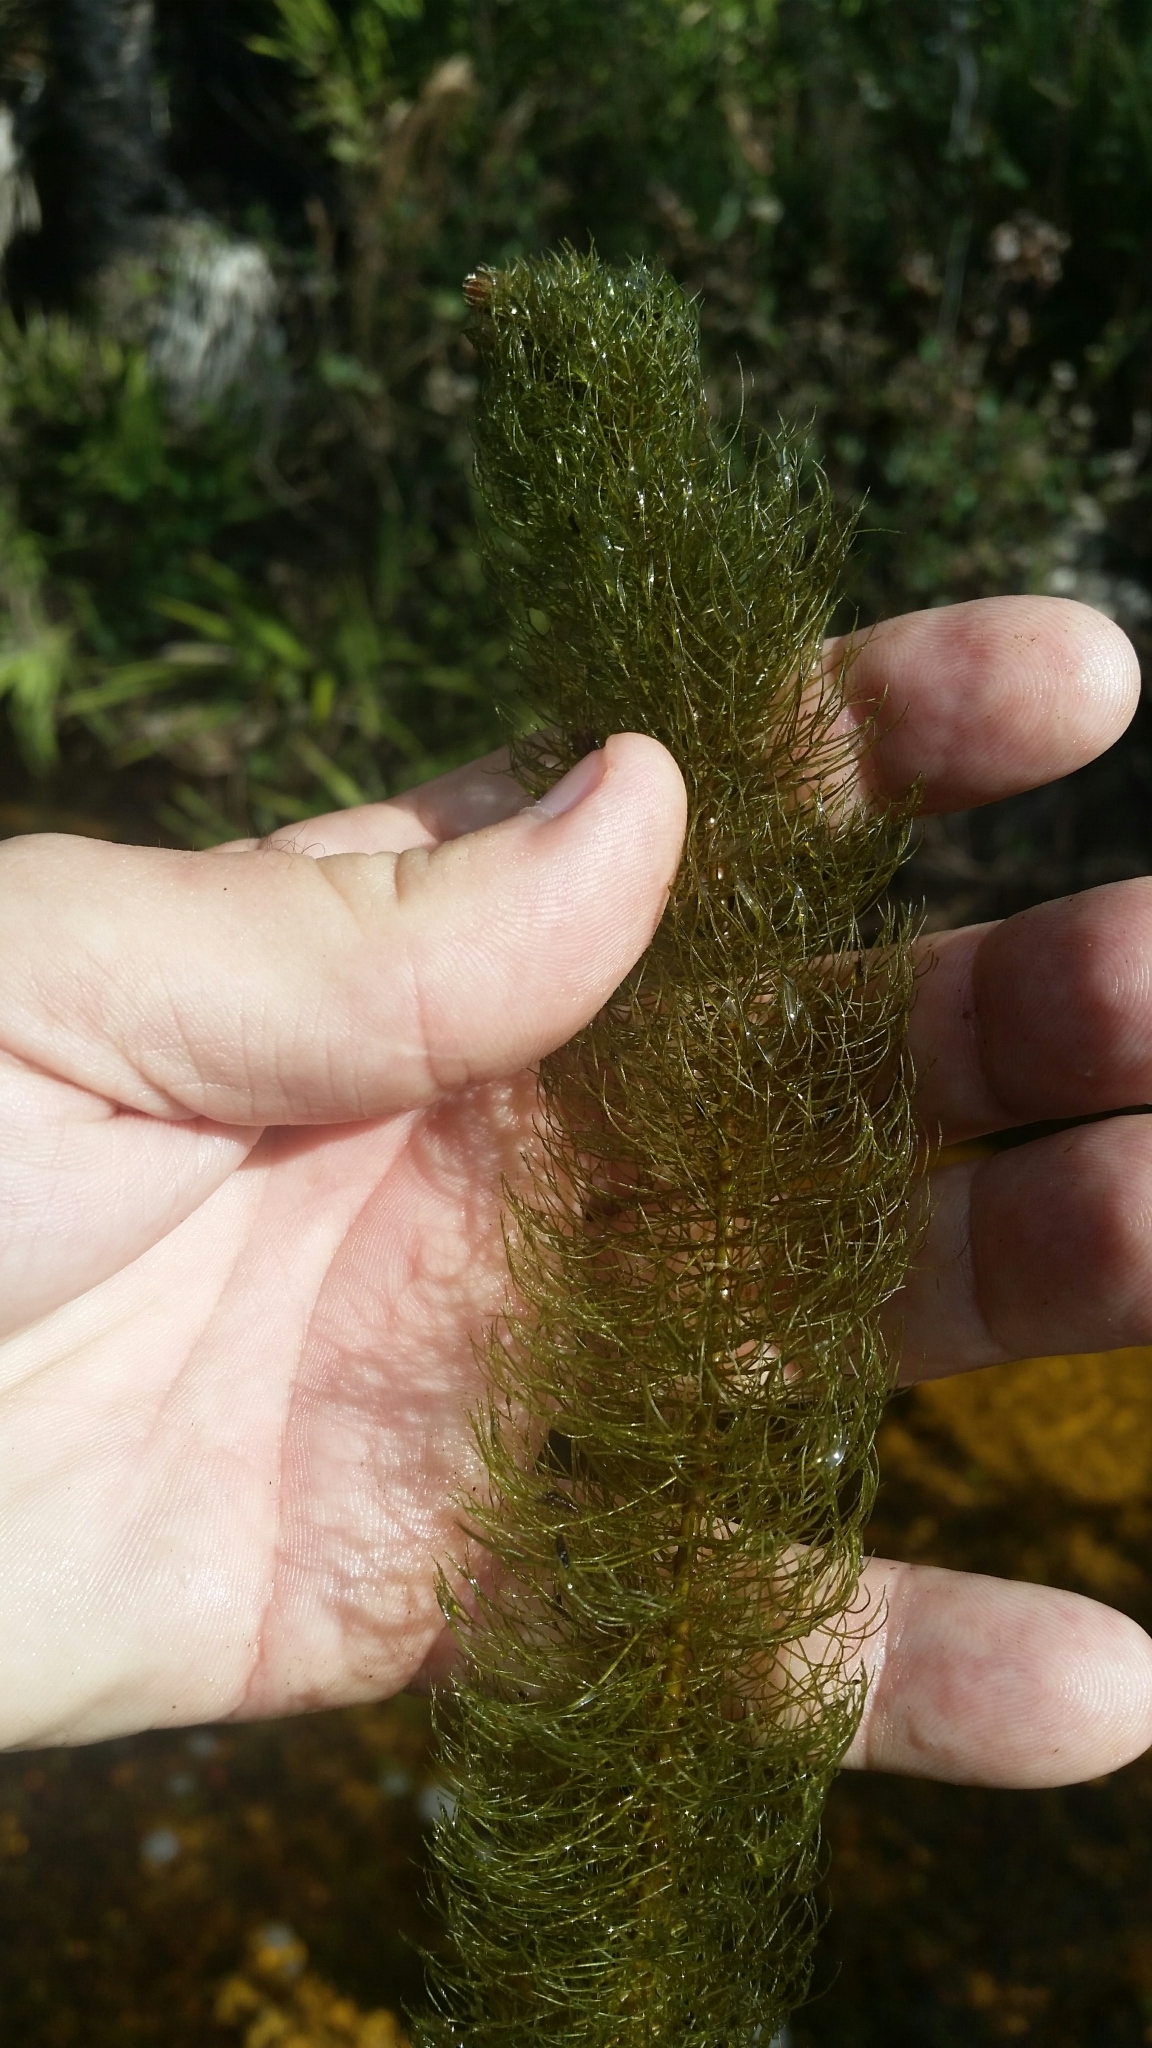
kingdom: Plantae
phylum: Tracheophyta
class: Magnoliopsida
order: Saxifragales
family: Haloragaceae
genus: Myriophyllum
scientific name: Myriophyllum pinnatum
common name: Cut-leaved water-milfoil
